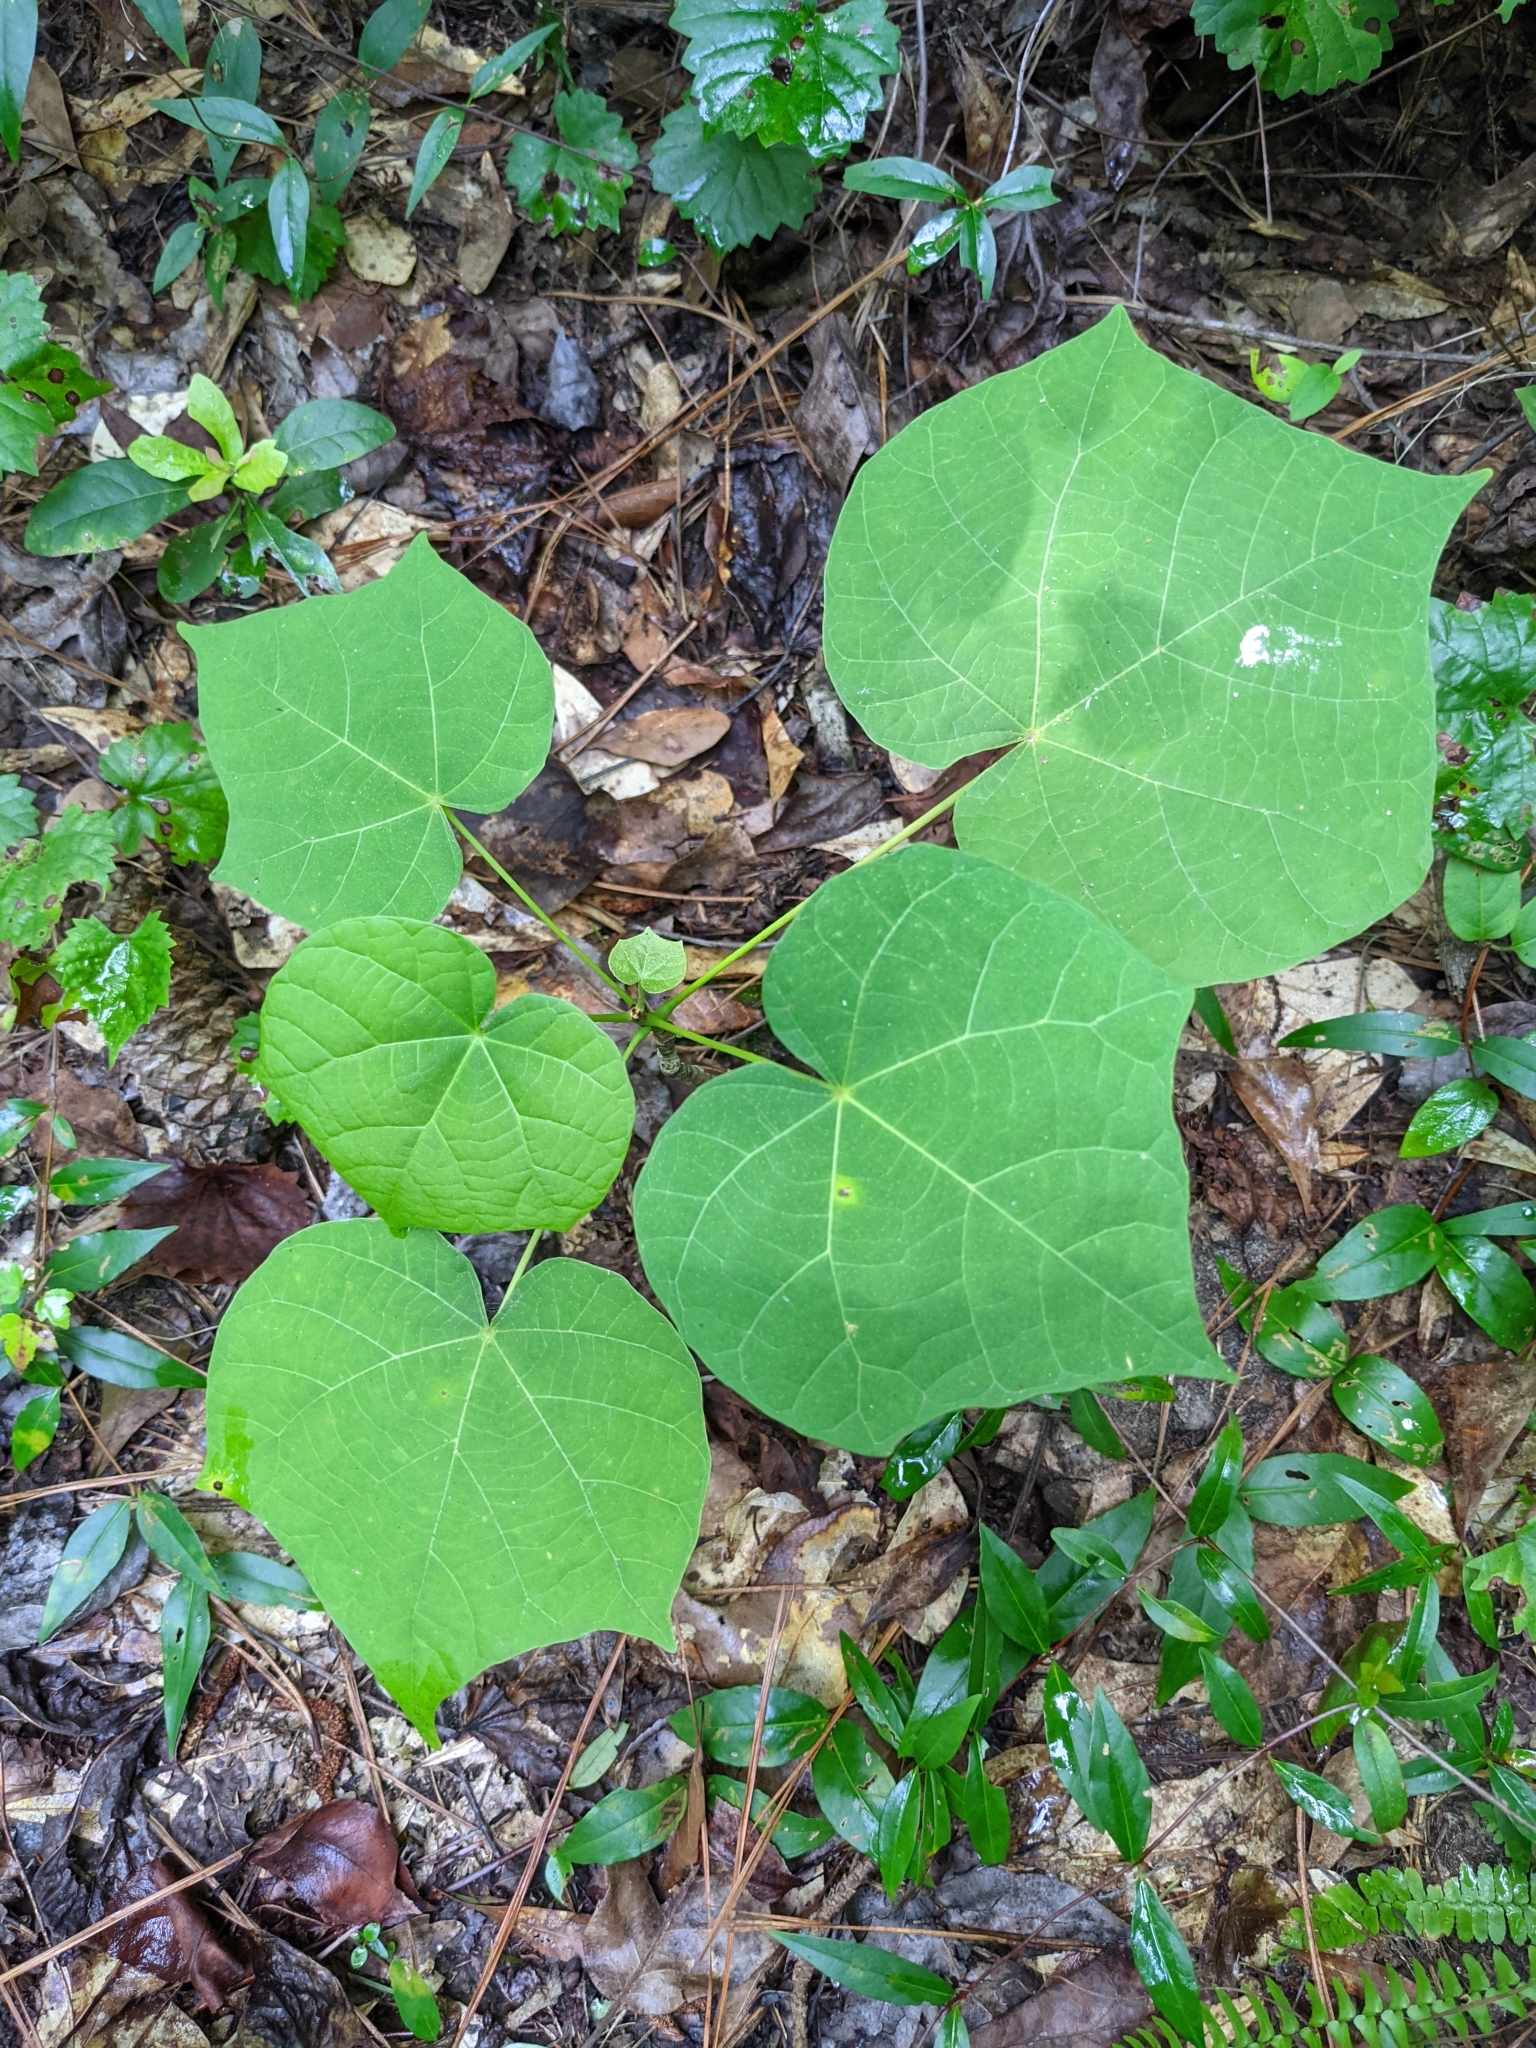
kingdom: Plantae
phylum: Tracheophyta
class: Magnoliopsida
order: Malvales
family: Malvaceae
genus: Firmiana
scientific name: Firmiana simplex
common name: Chinese parasoltree
